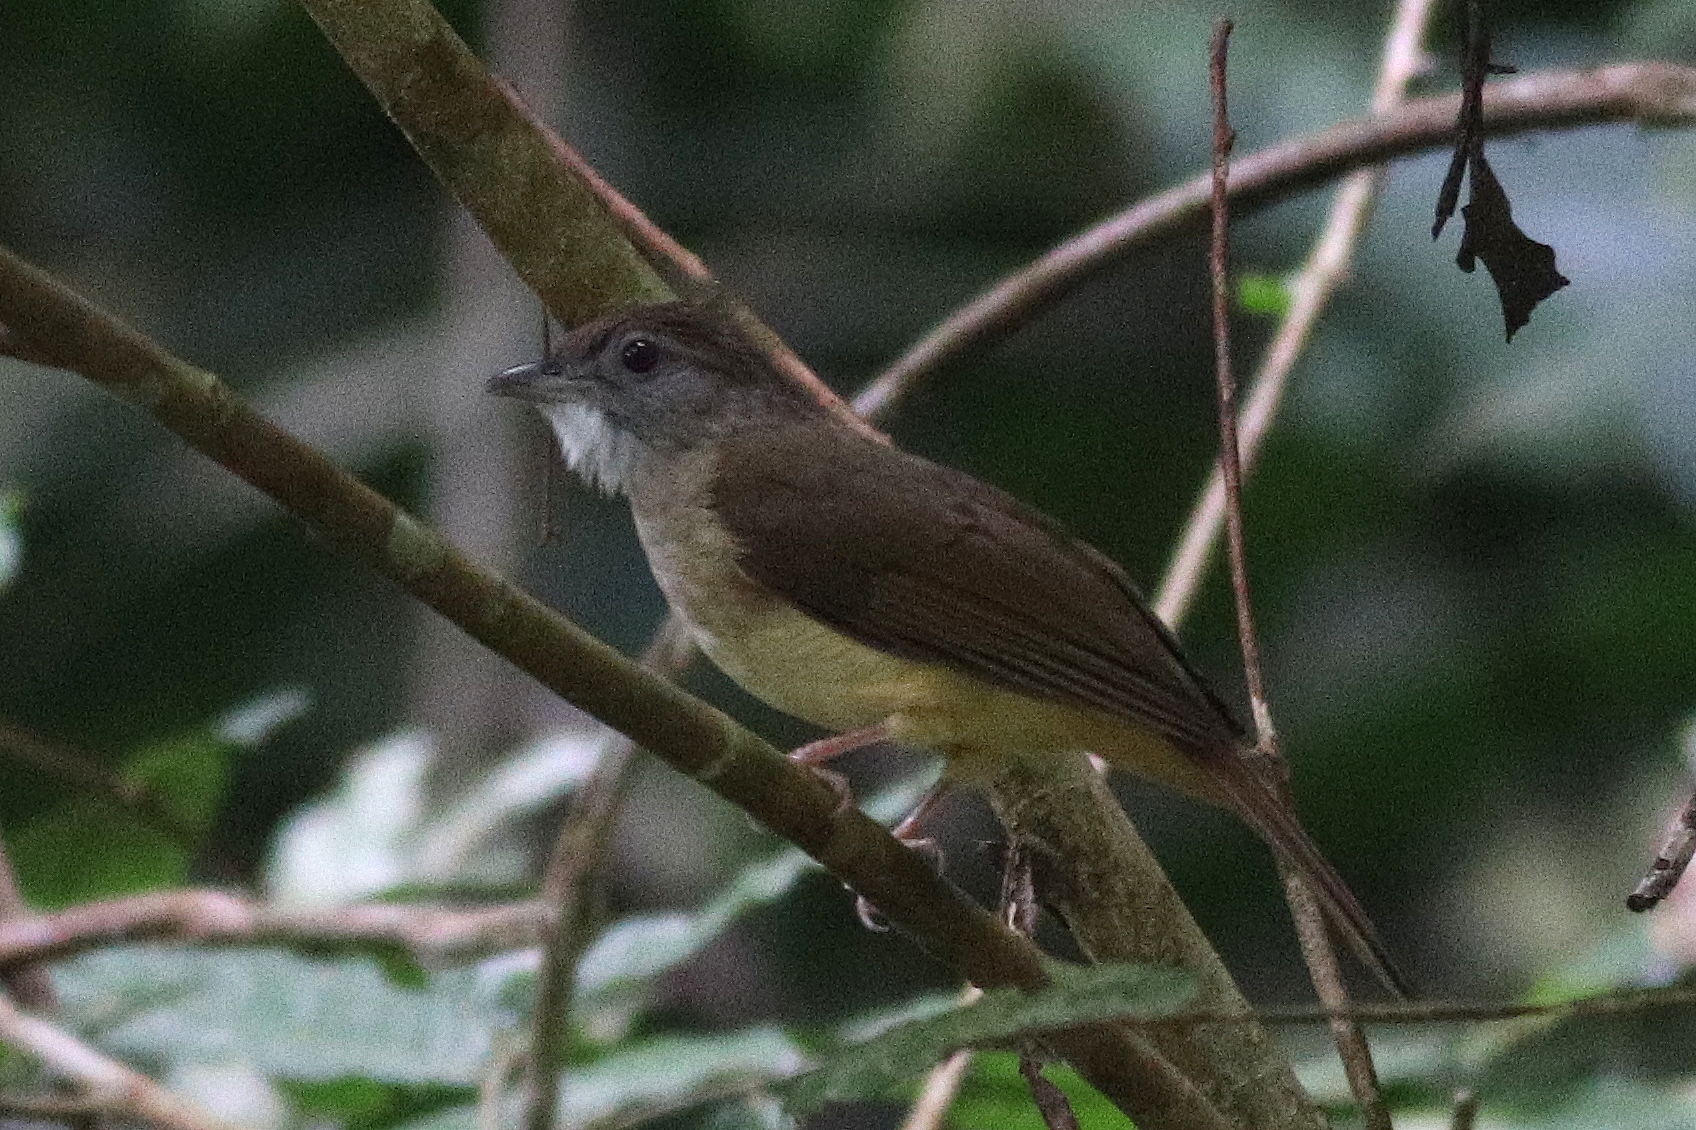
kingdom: Animalia
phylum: Chordata
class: Aves
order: Passeriformes
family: Pycnonotidae
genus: Alophoixus
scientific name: Alophoixus bres
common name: Gray-cheeked bulbul
